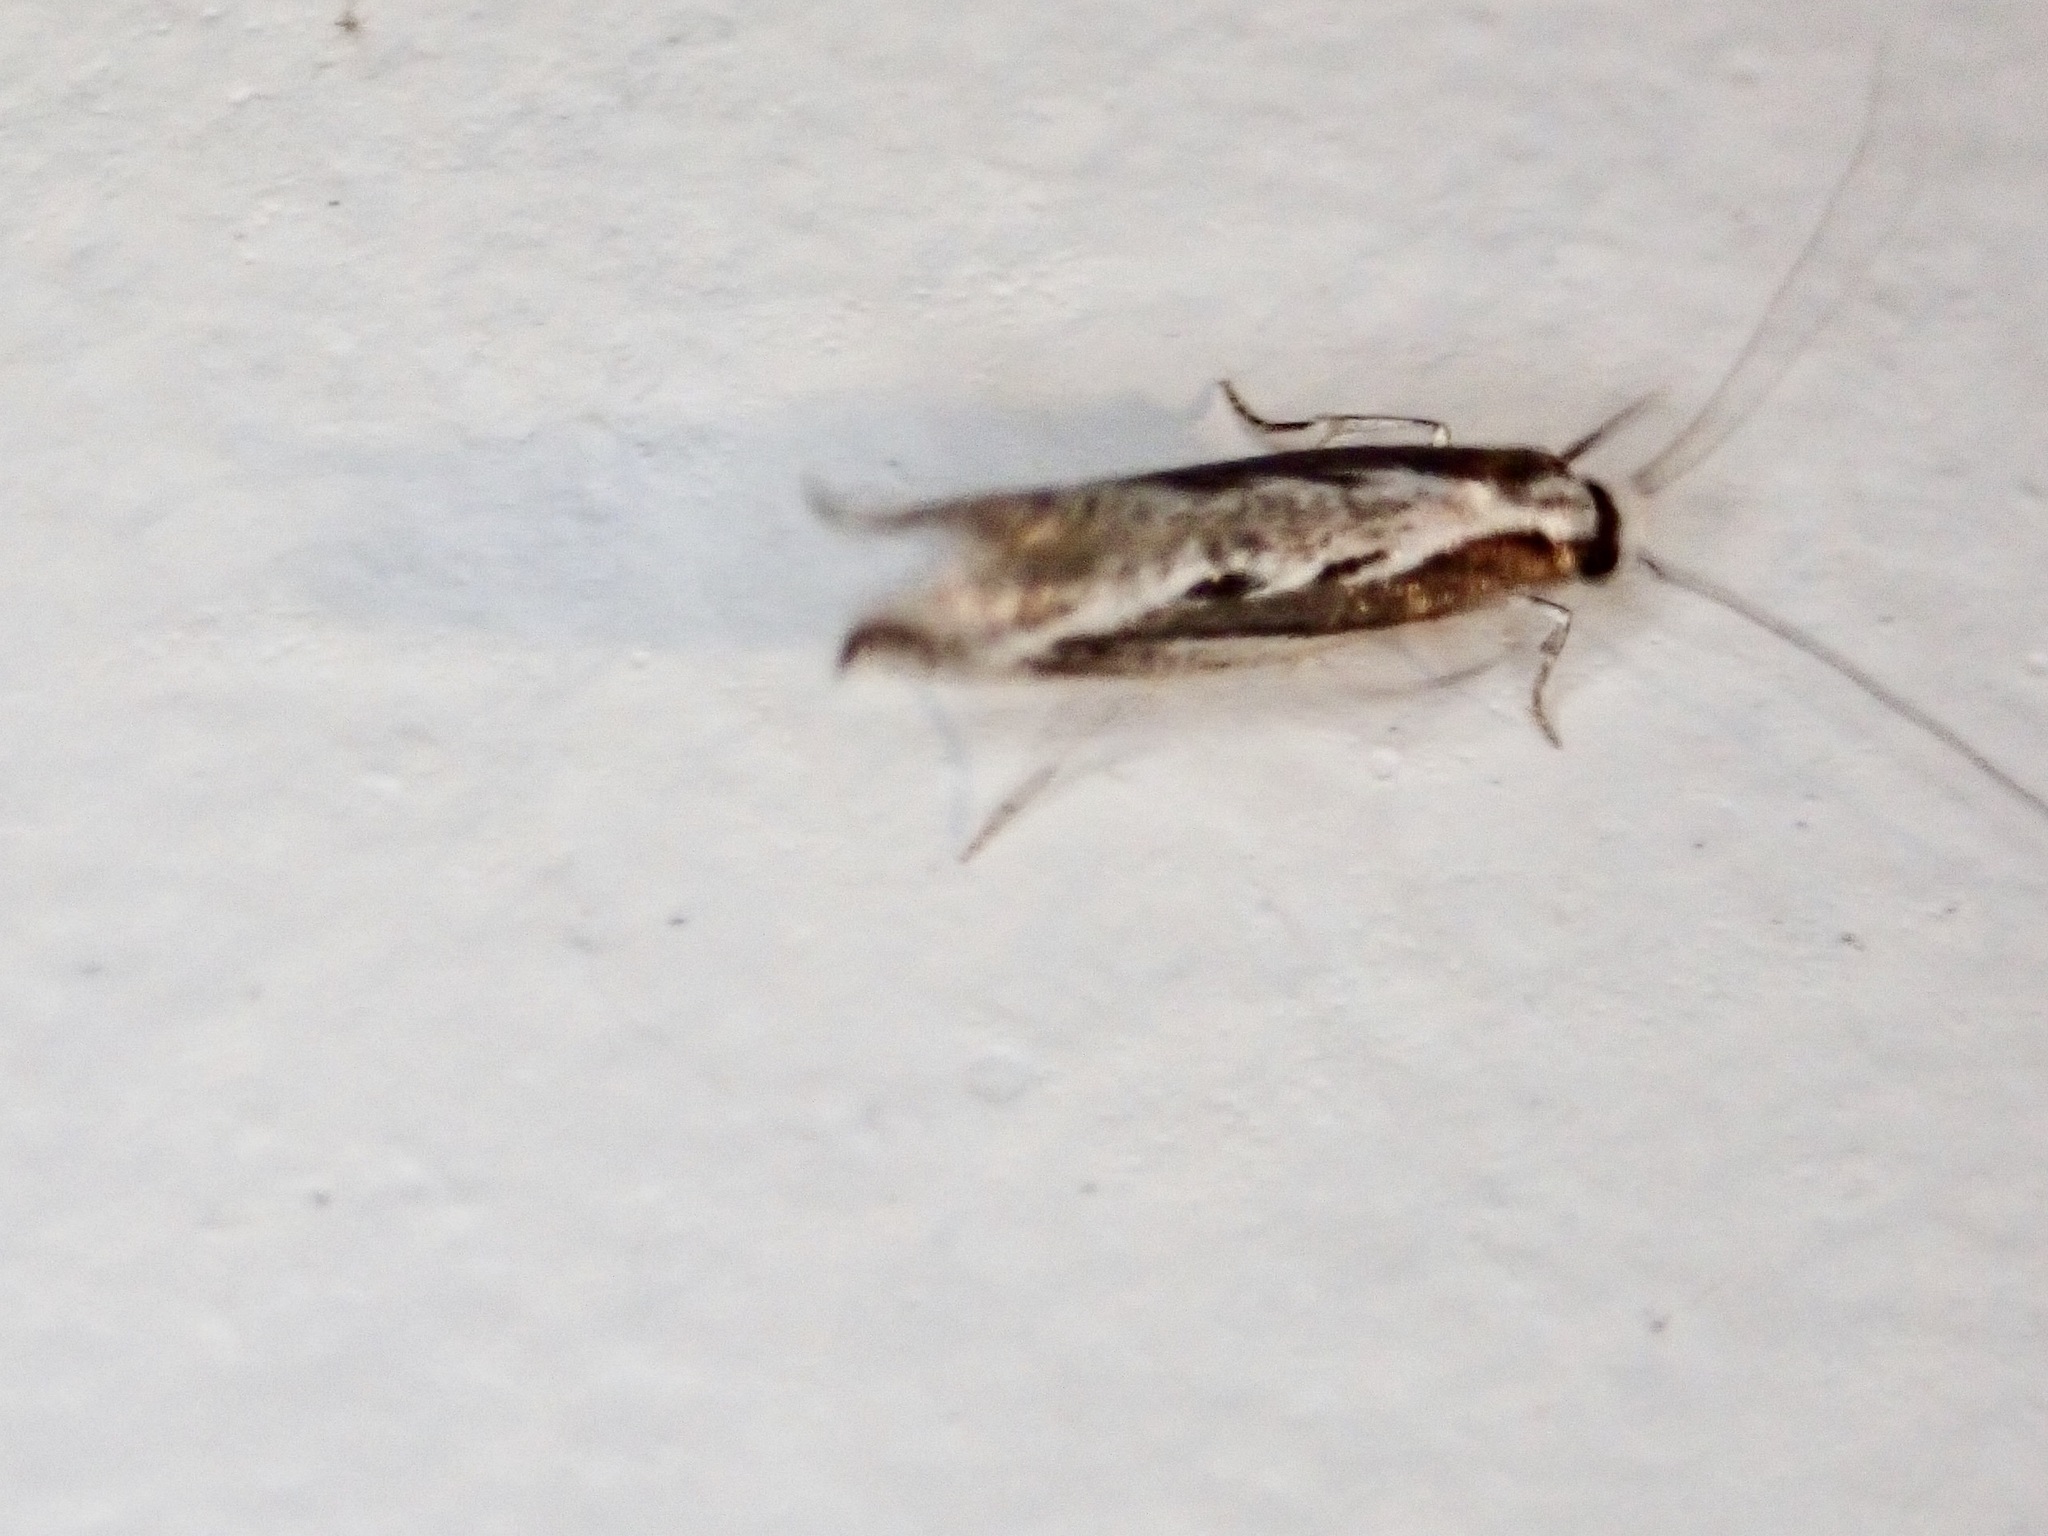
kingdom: Animalia
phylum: Arthropoda
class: Insecta
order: Lepidoptera
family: Tineidae
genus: Erechthias
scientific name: Erechthias fulguritella
